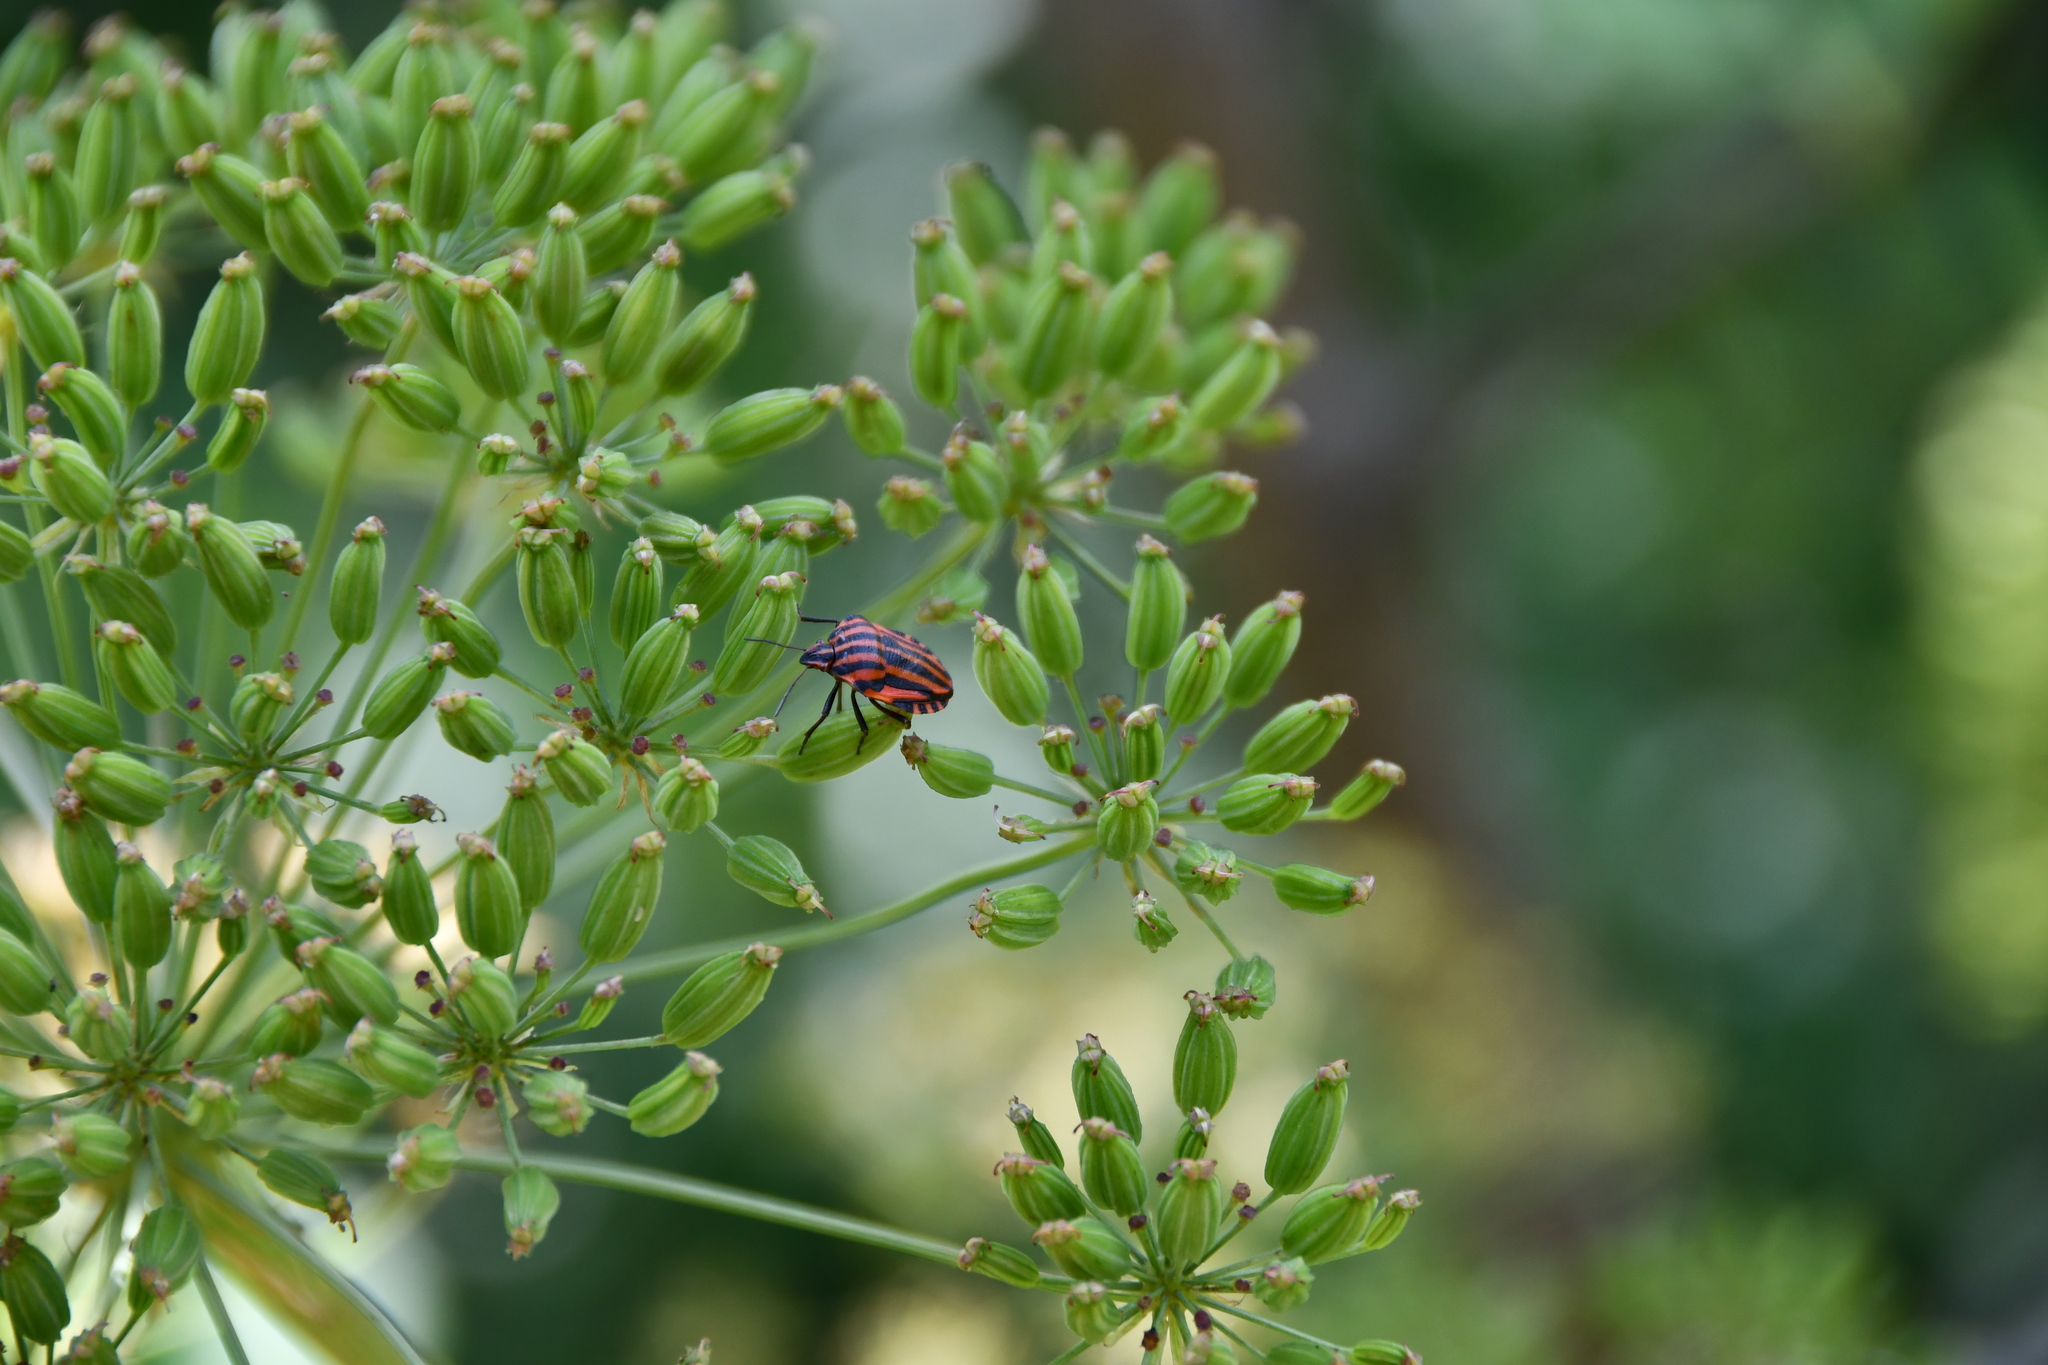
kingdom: Animalia
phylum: Arthropoda
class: Insecta
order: Hemiptera
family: Pentatomidae
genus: Graphosoma
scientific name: Graphosoma italicum
